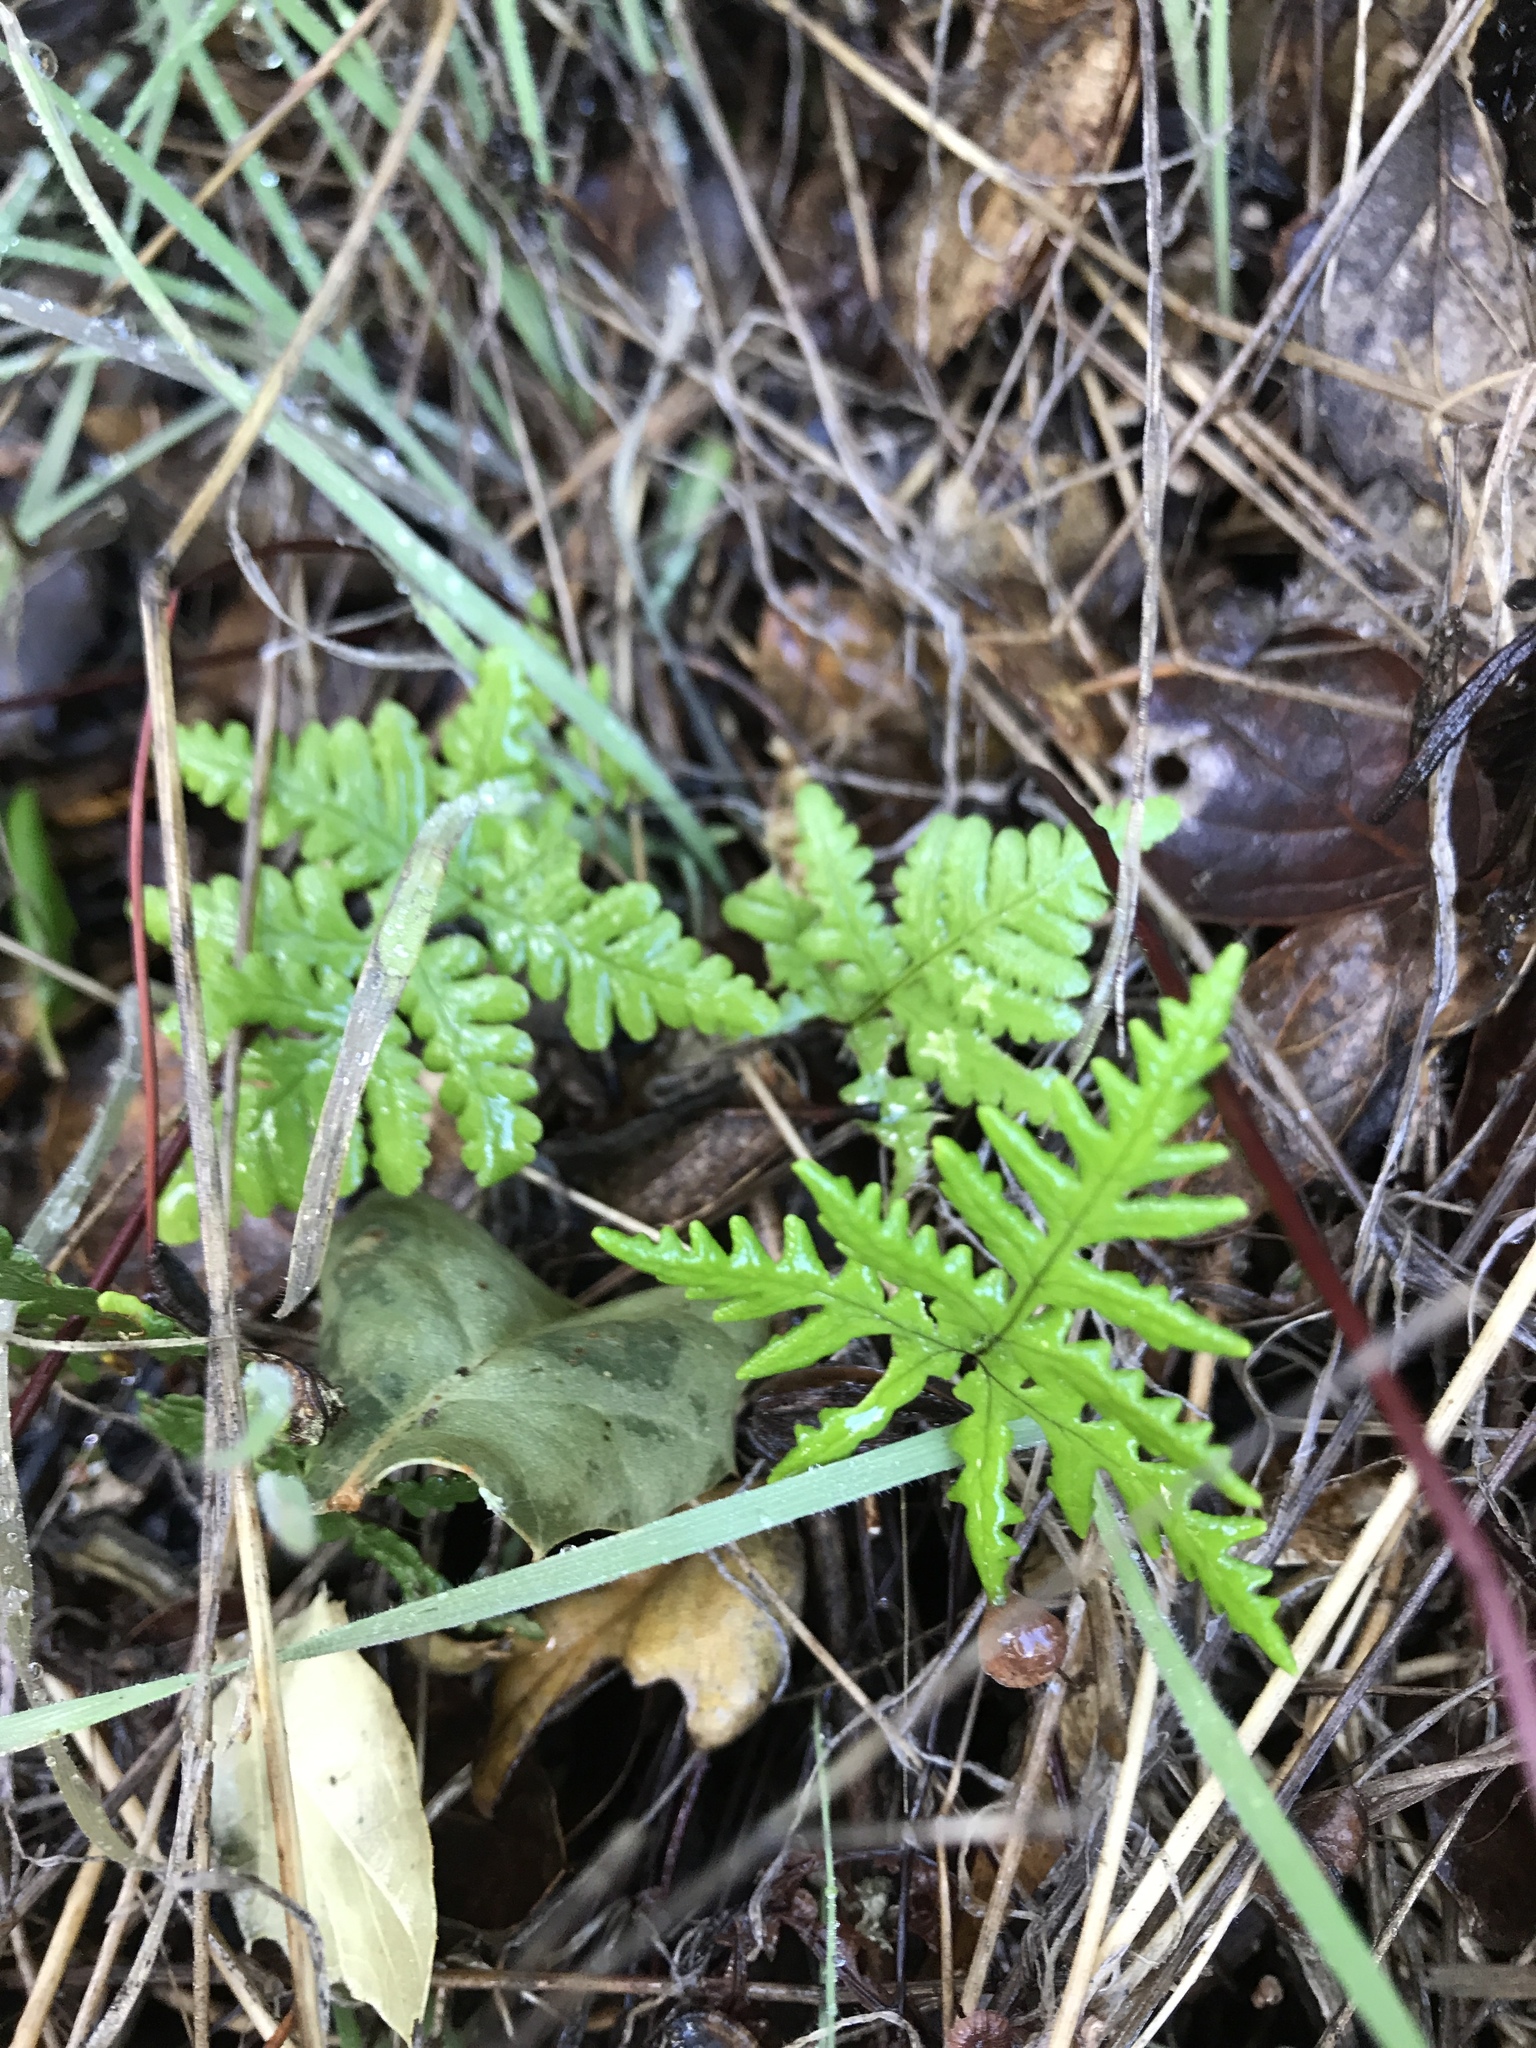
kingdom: Plantae
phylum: Tracheophyta
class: Polypodiopsida
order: Polypodiales
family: Pteridaceae
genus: Pentagramma
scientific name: Pentagramma triangularis
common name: Gold fern
